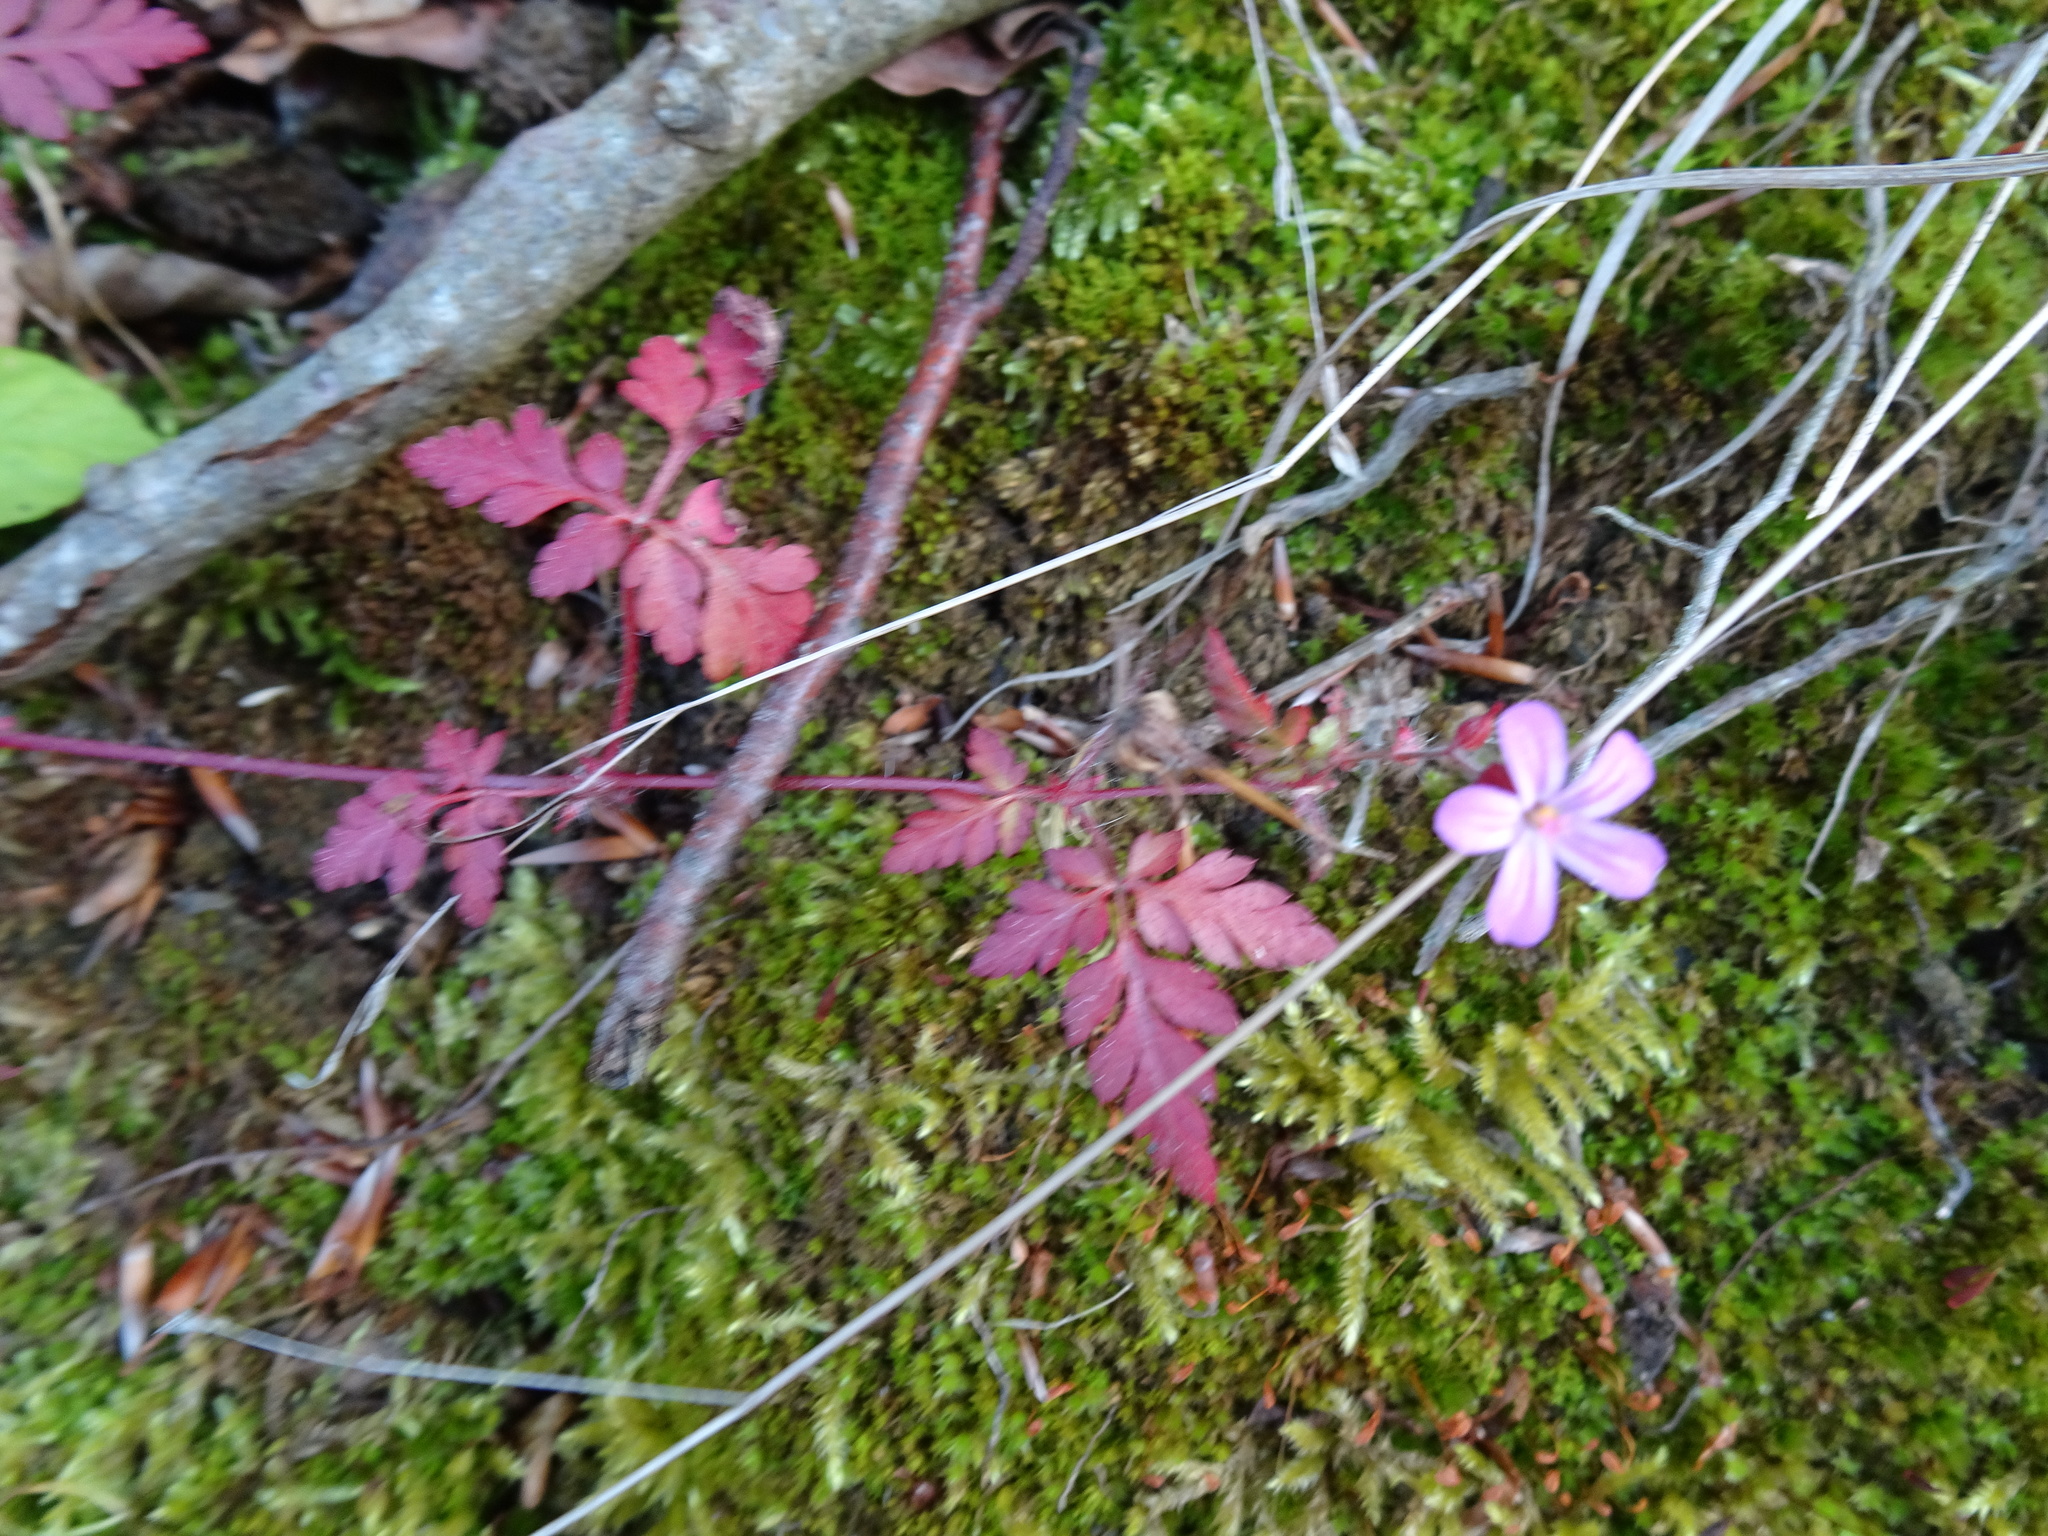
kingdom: Plantae
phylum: Tracheophyta
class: Magnoliopsida
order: Geraniales
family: Geraniaceae
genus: Geranium
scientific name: Geranium robertianum
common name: Herb-robert
